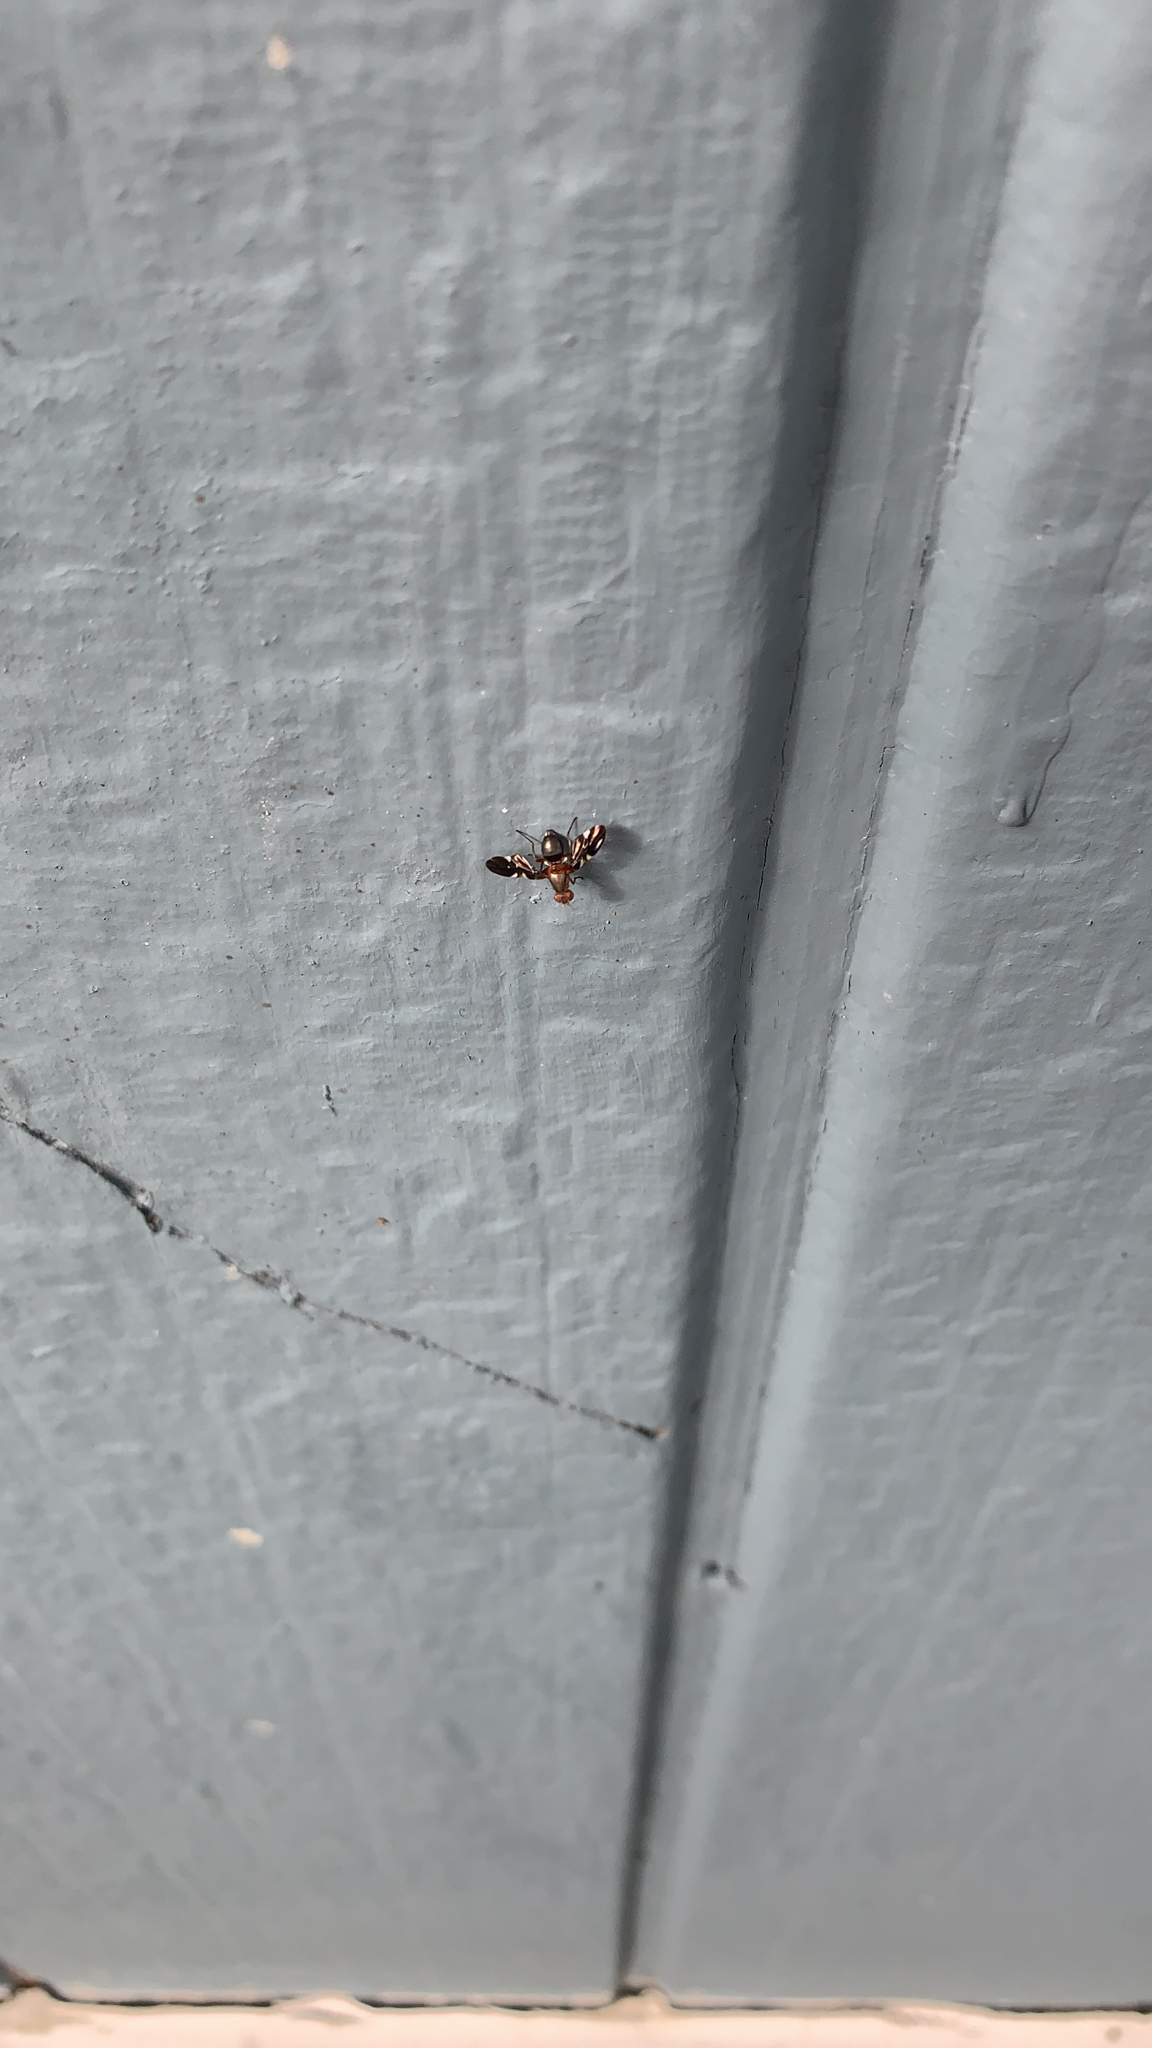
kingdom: Animalia
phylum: Arthropoda
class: Insecta
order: Diptera
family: Ulidiidae
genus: Delphinia
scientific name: Delphinia picta
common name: Common picture-winged fly
